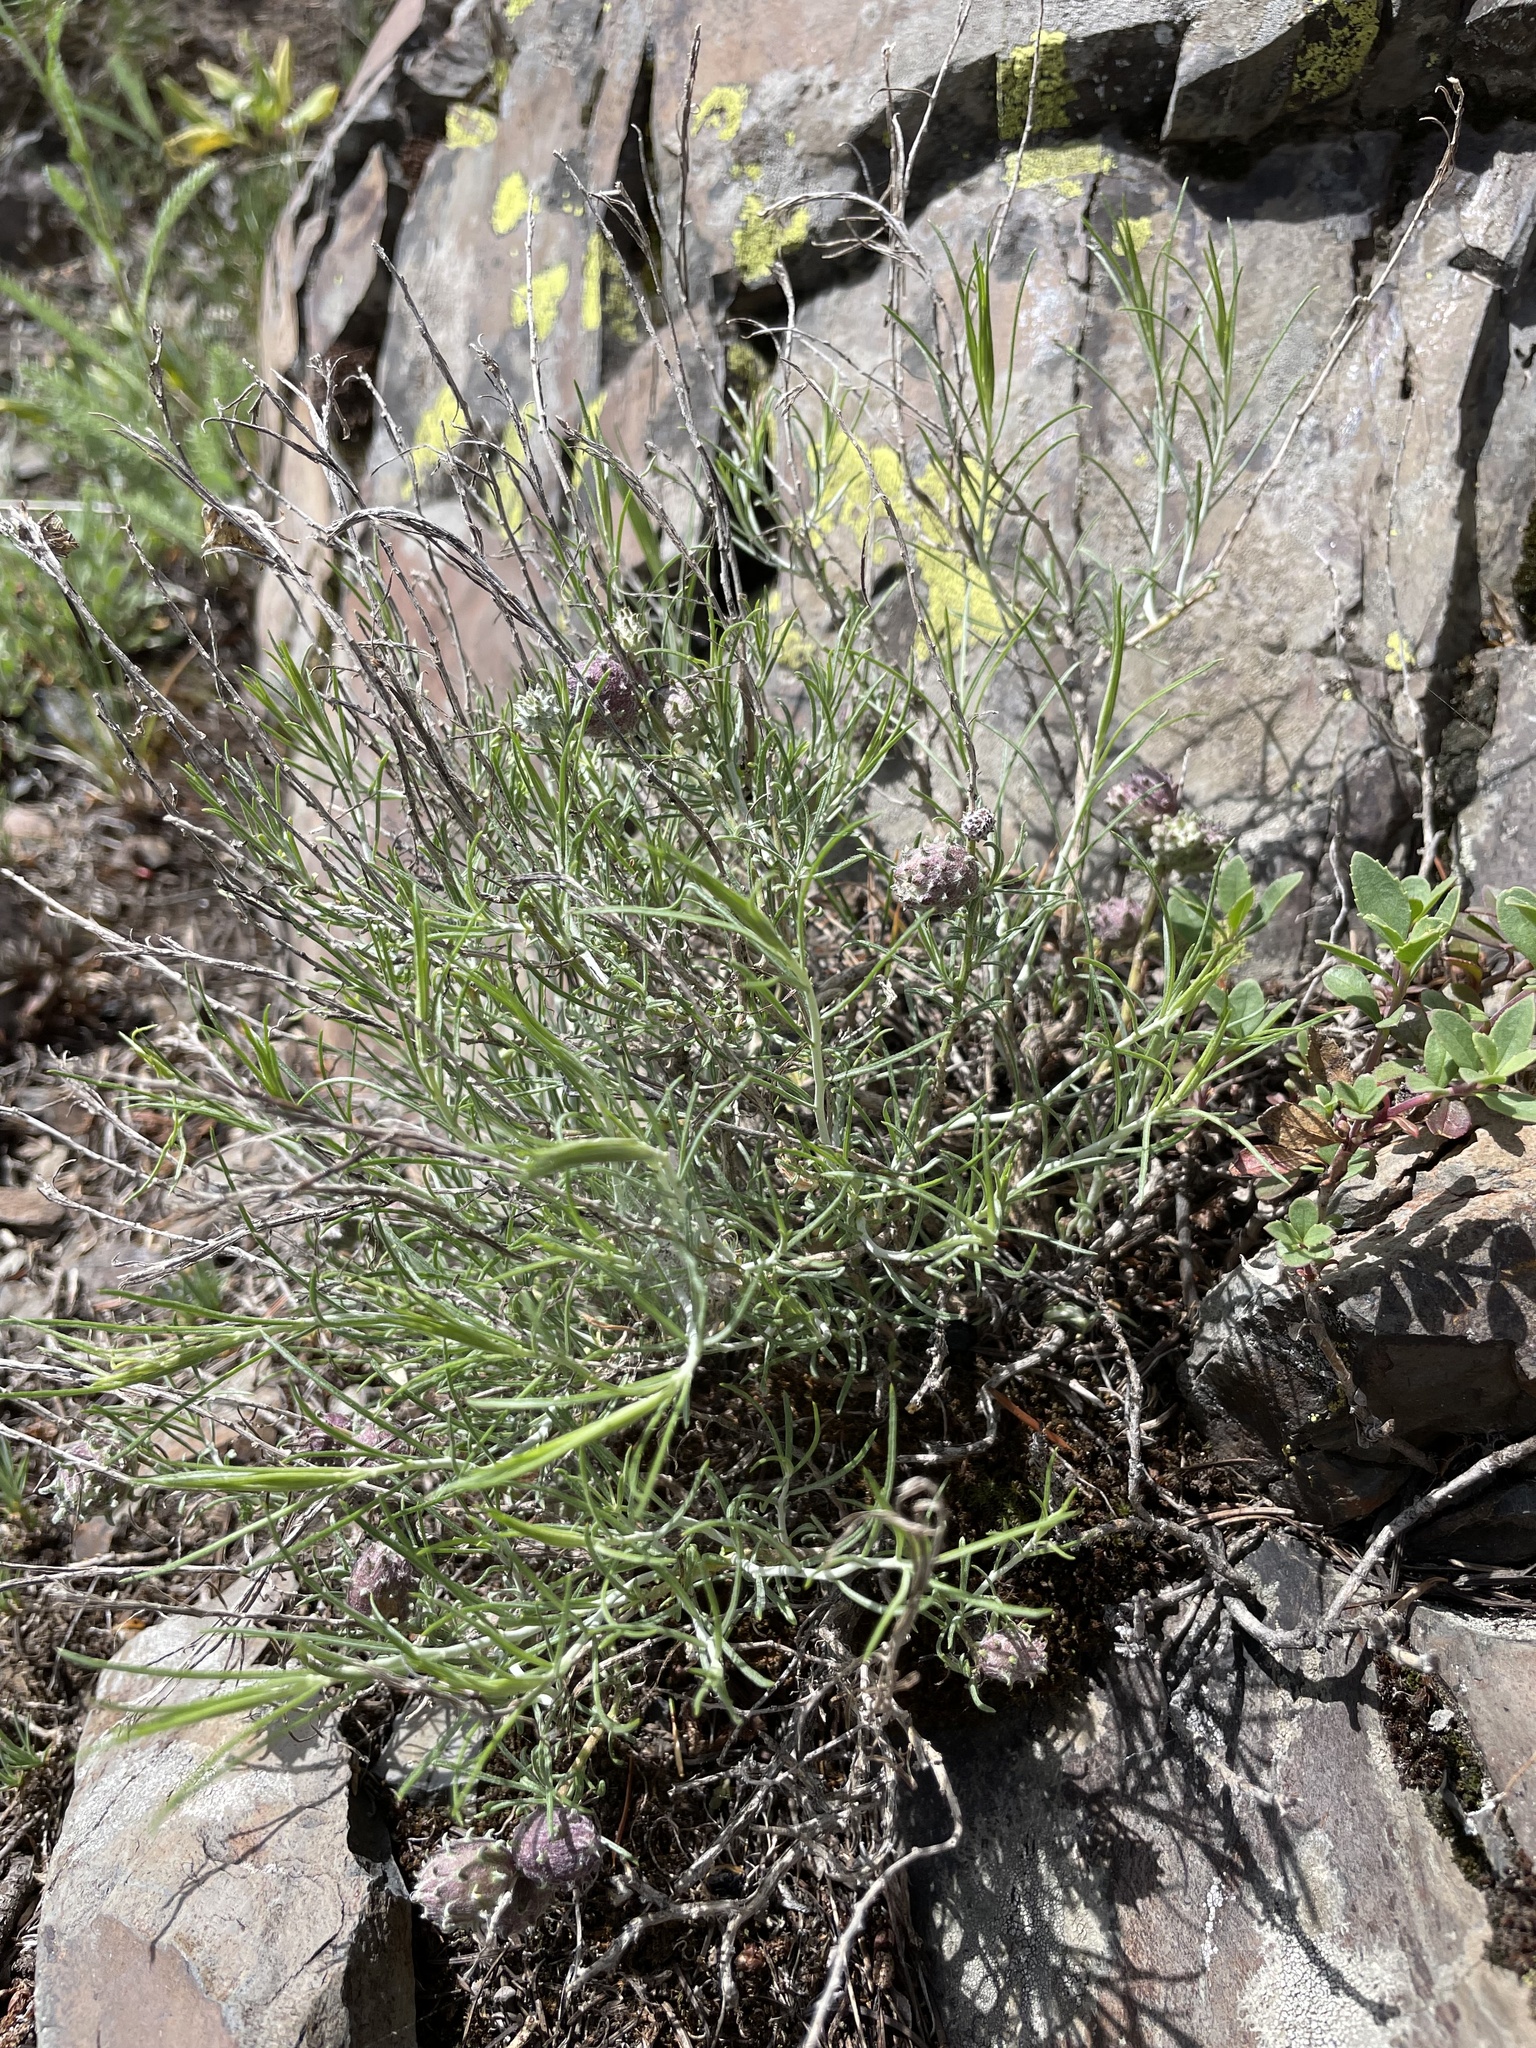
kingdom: Plantae
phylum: Tracheophyta
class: Magnoliopsida
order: Asterales
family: Asteraceae
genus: Ericameria
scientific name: Ericameria nauseosa
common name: Rubber rabbitbrush
